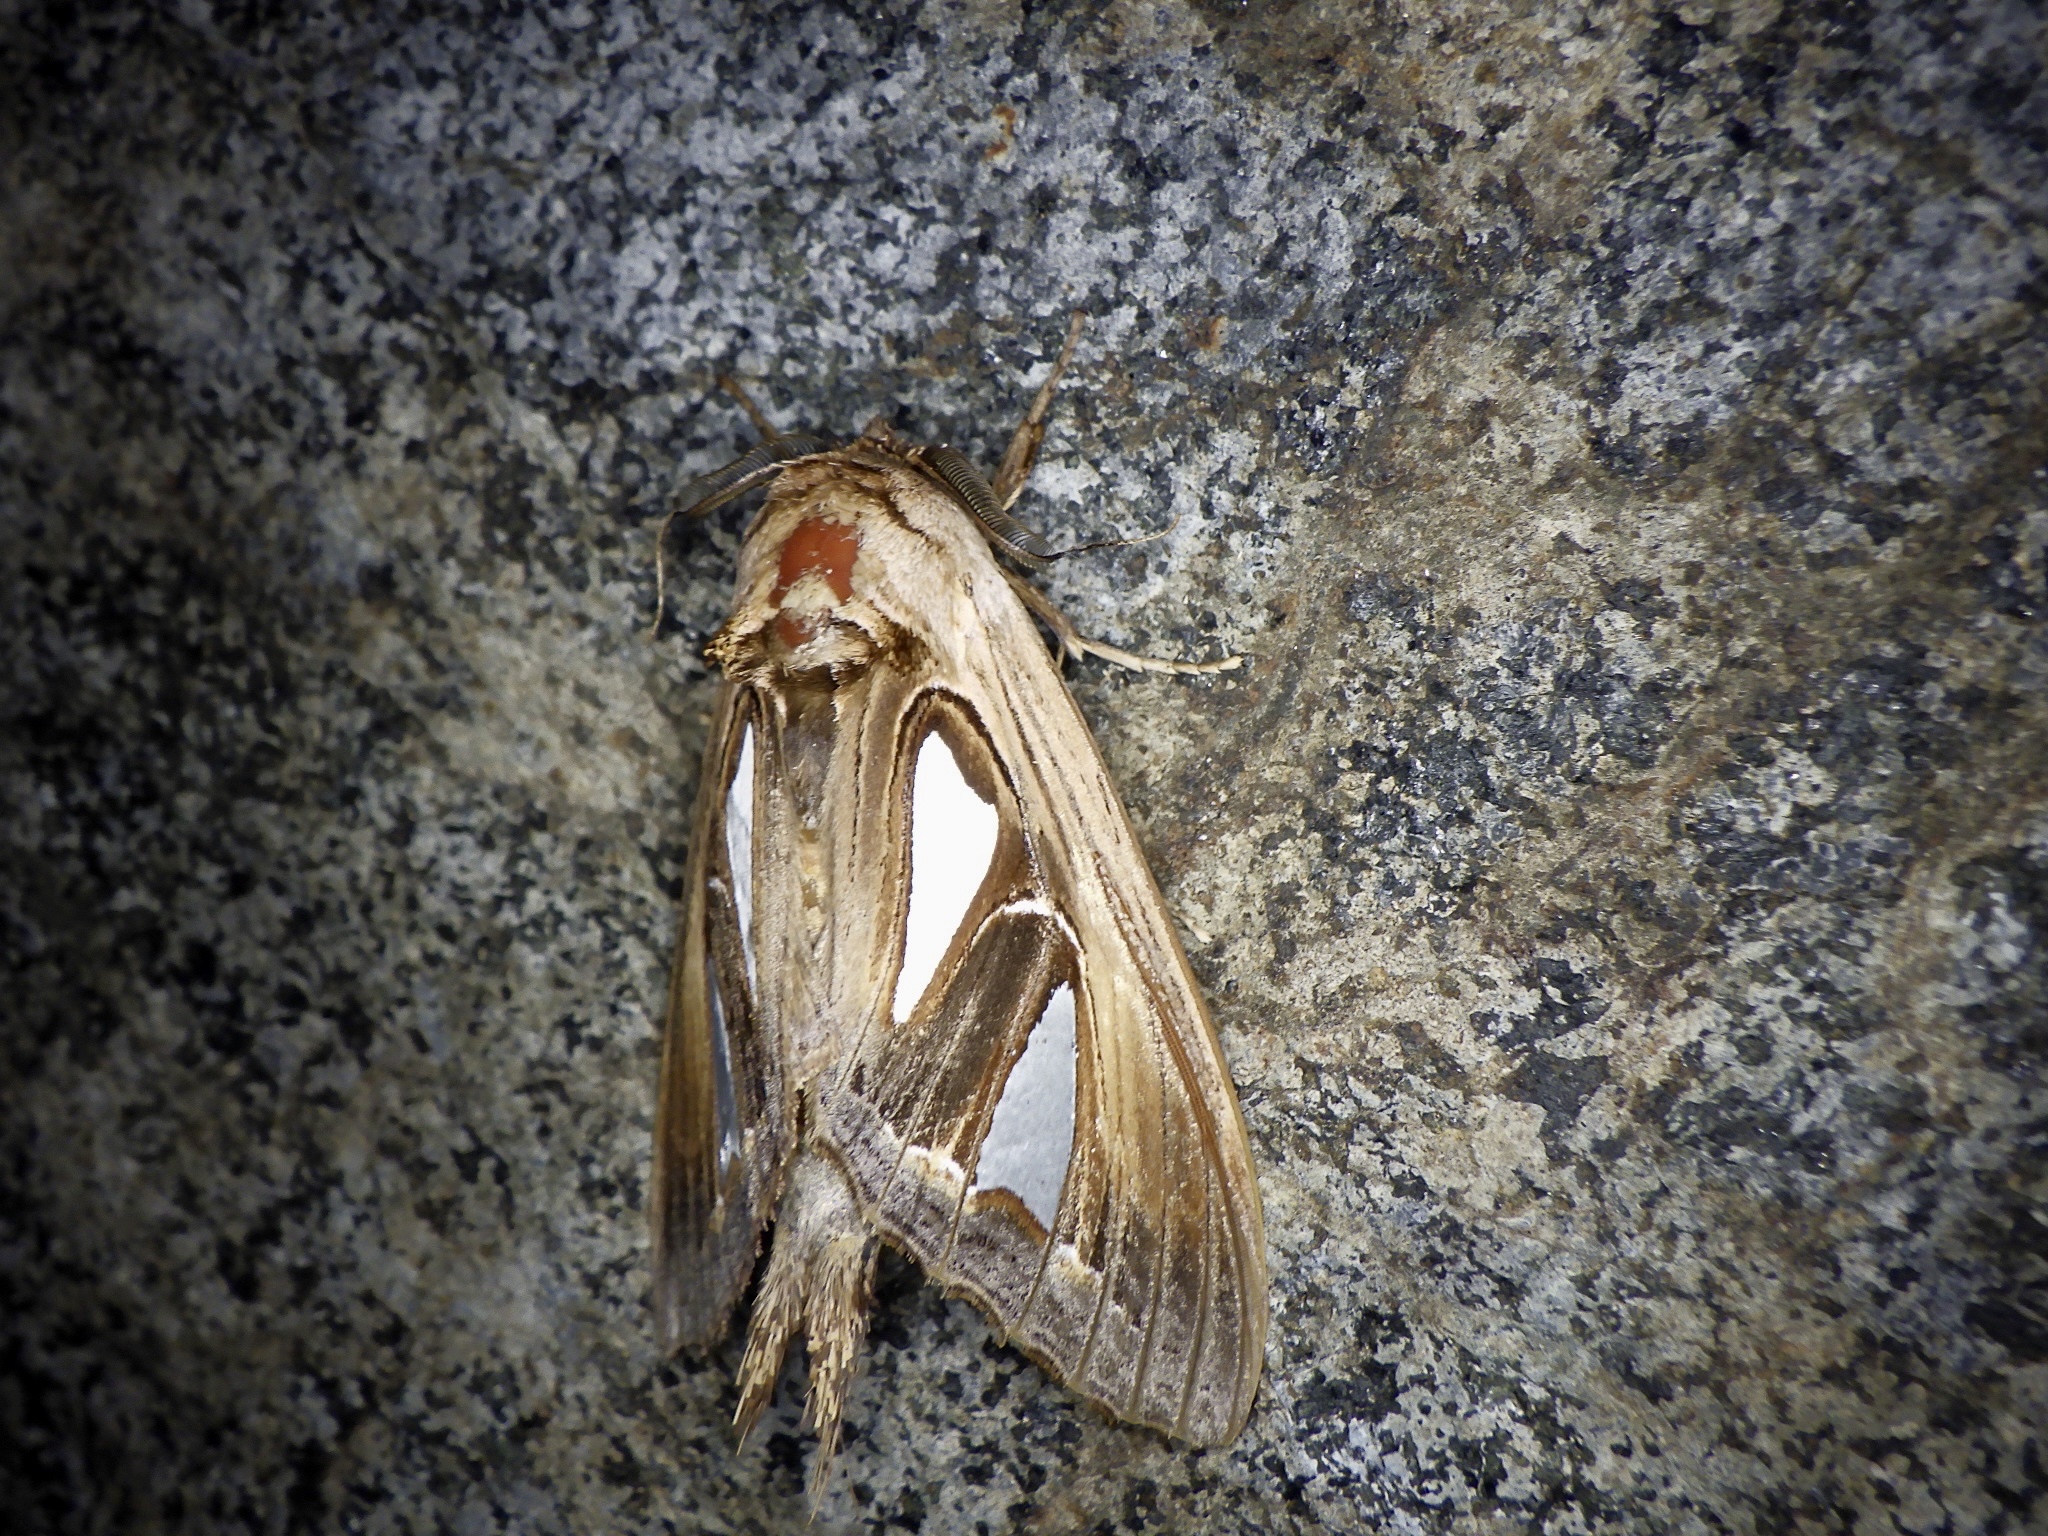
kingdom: Animalia
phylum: Arthropoda
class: Insecta
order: Lepidoptera
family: Notodontidae
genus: Tarsolepis
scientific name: Tarsolepis japonica
